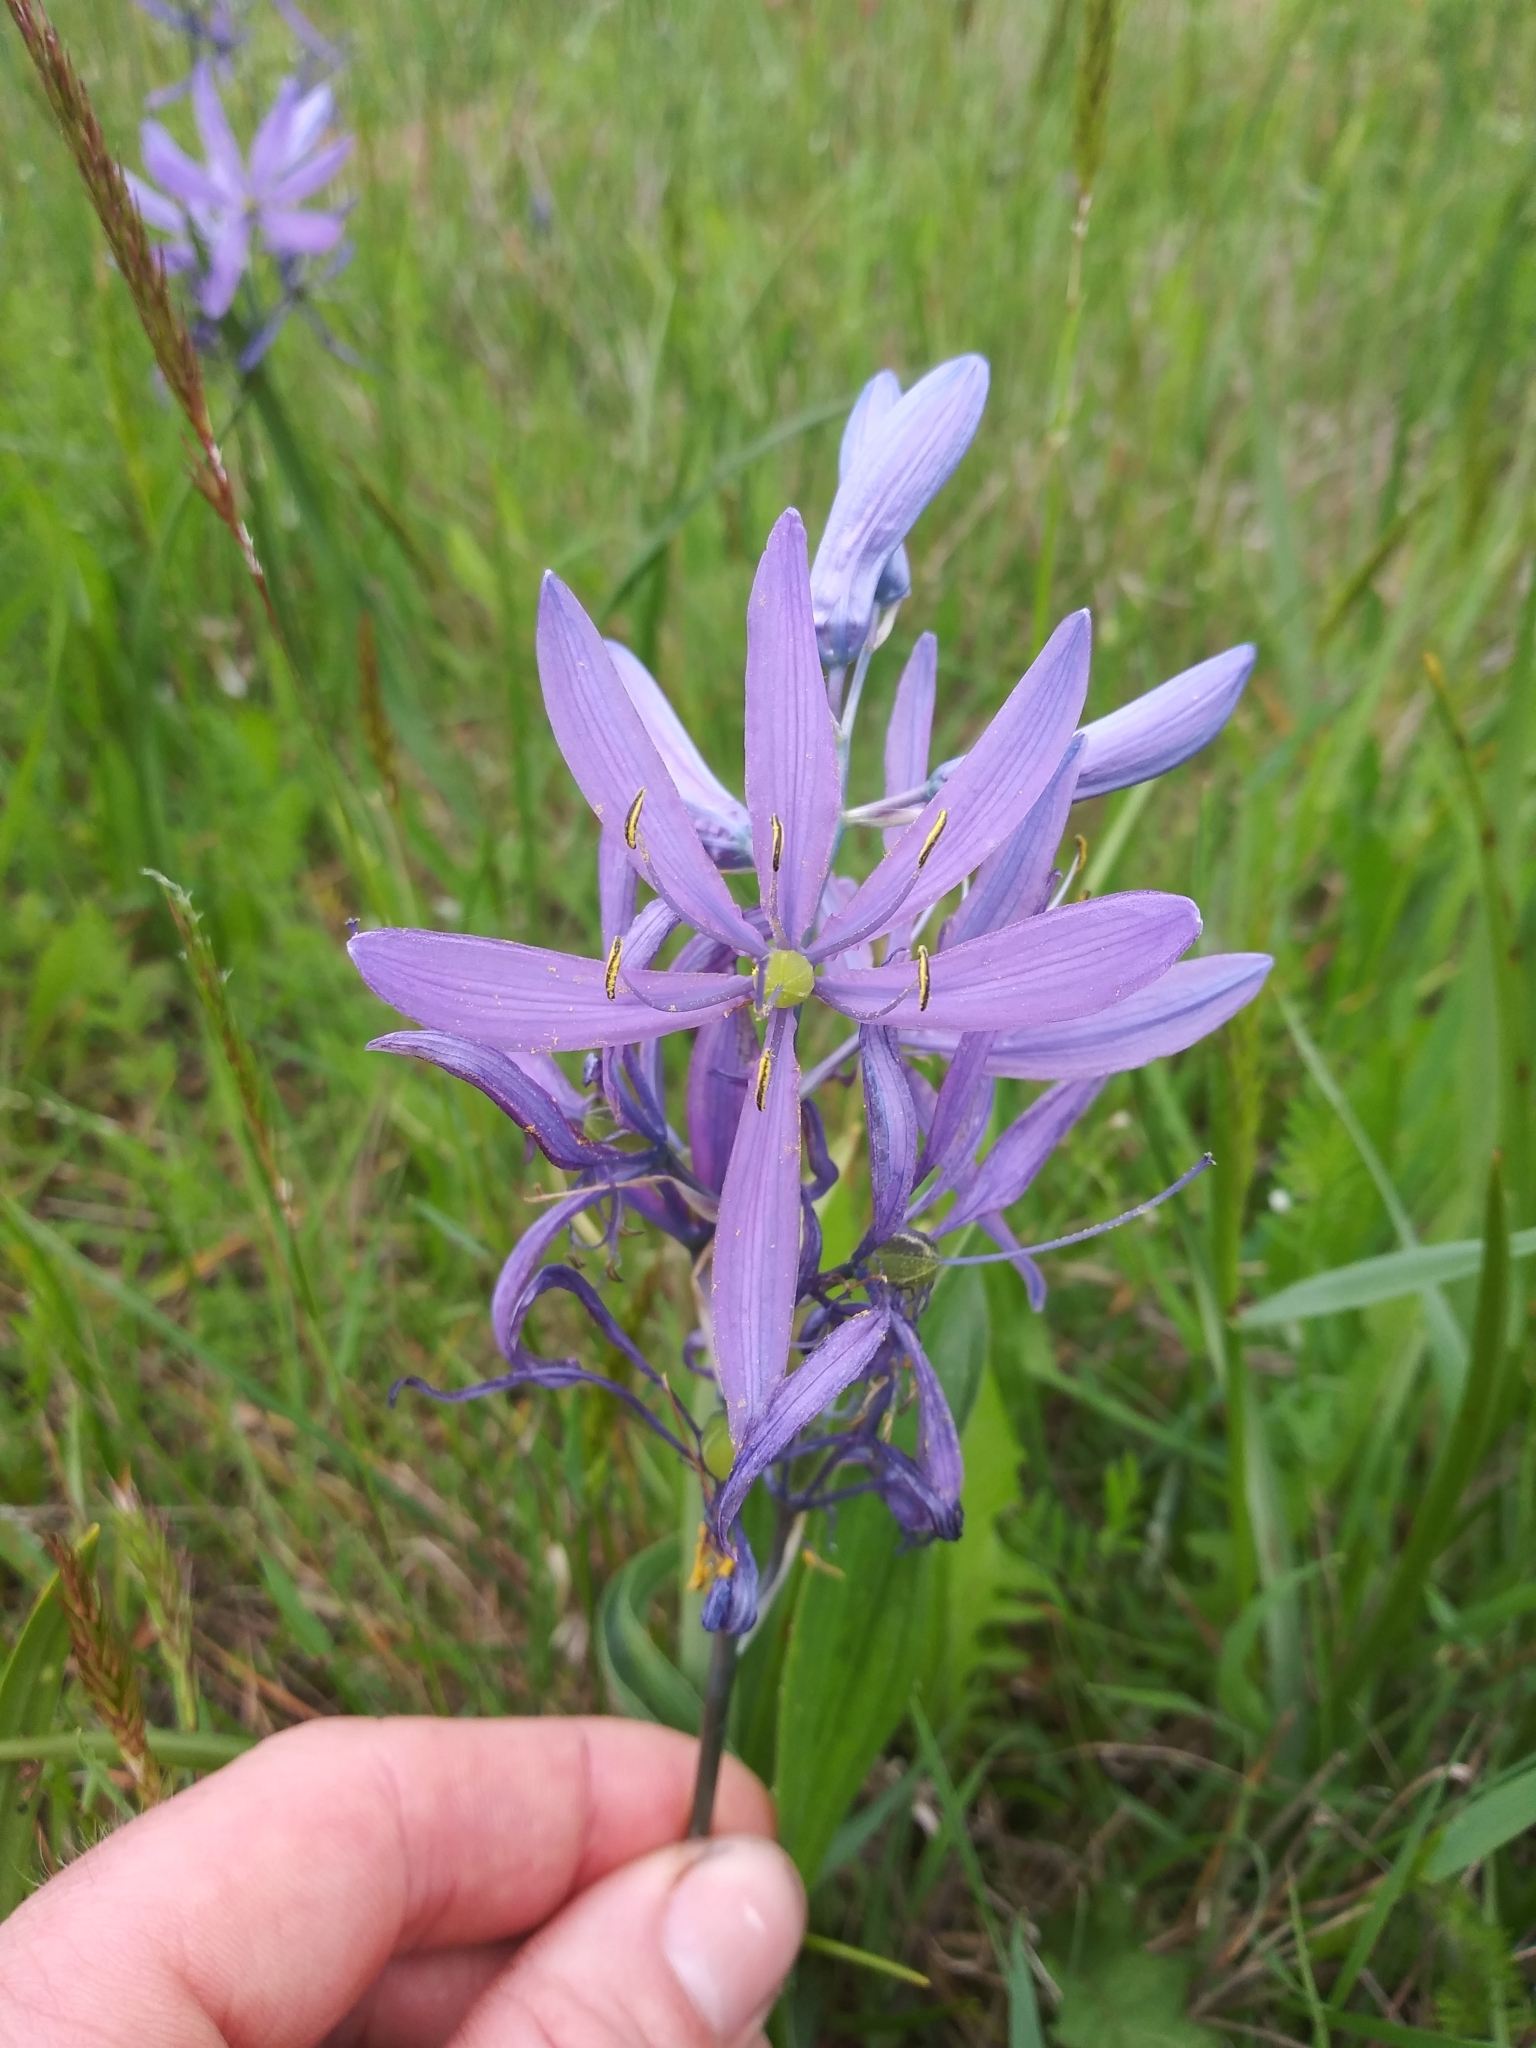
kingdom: Plantae
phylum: Tracheophyta
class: Liliopsida
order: Asparagales
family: Asparagaceae
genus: Camassia
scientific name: Camassia quamash
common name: Common camas
